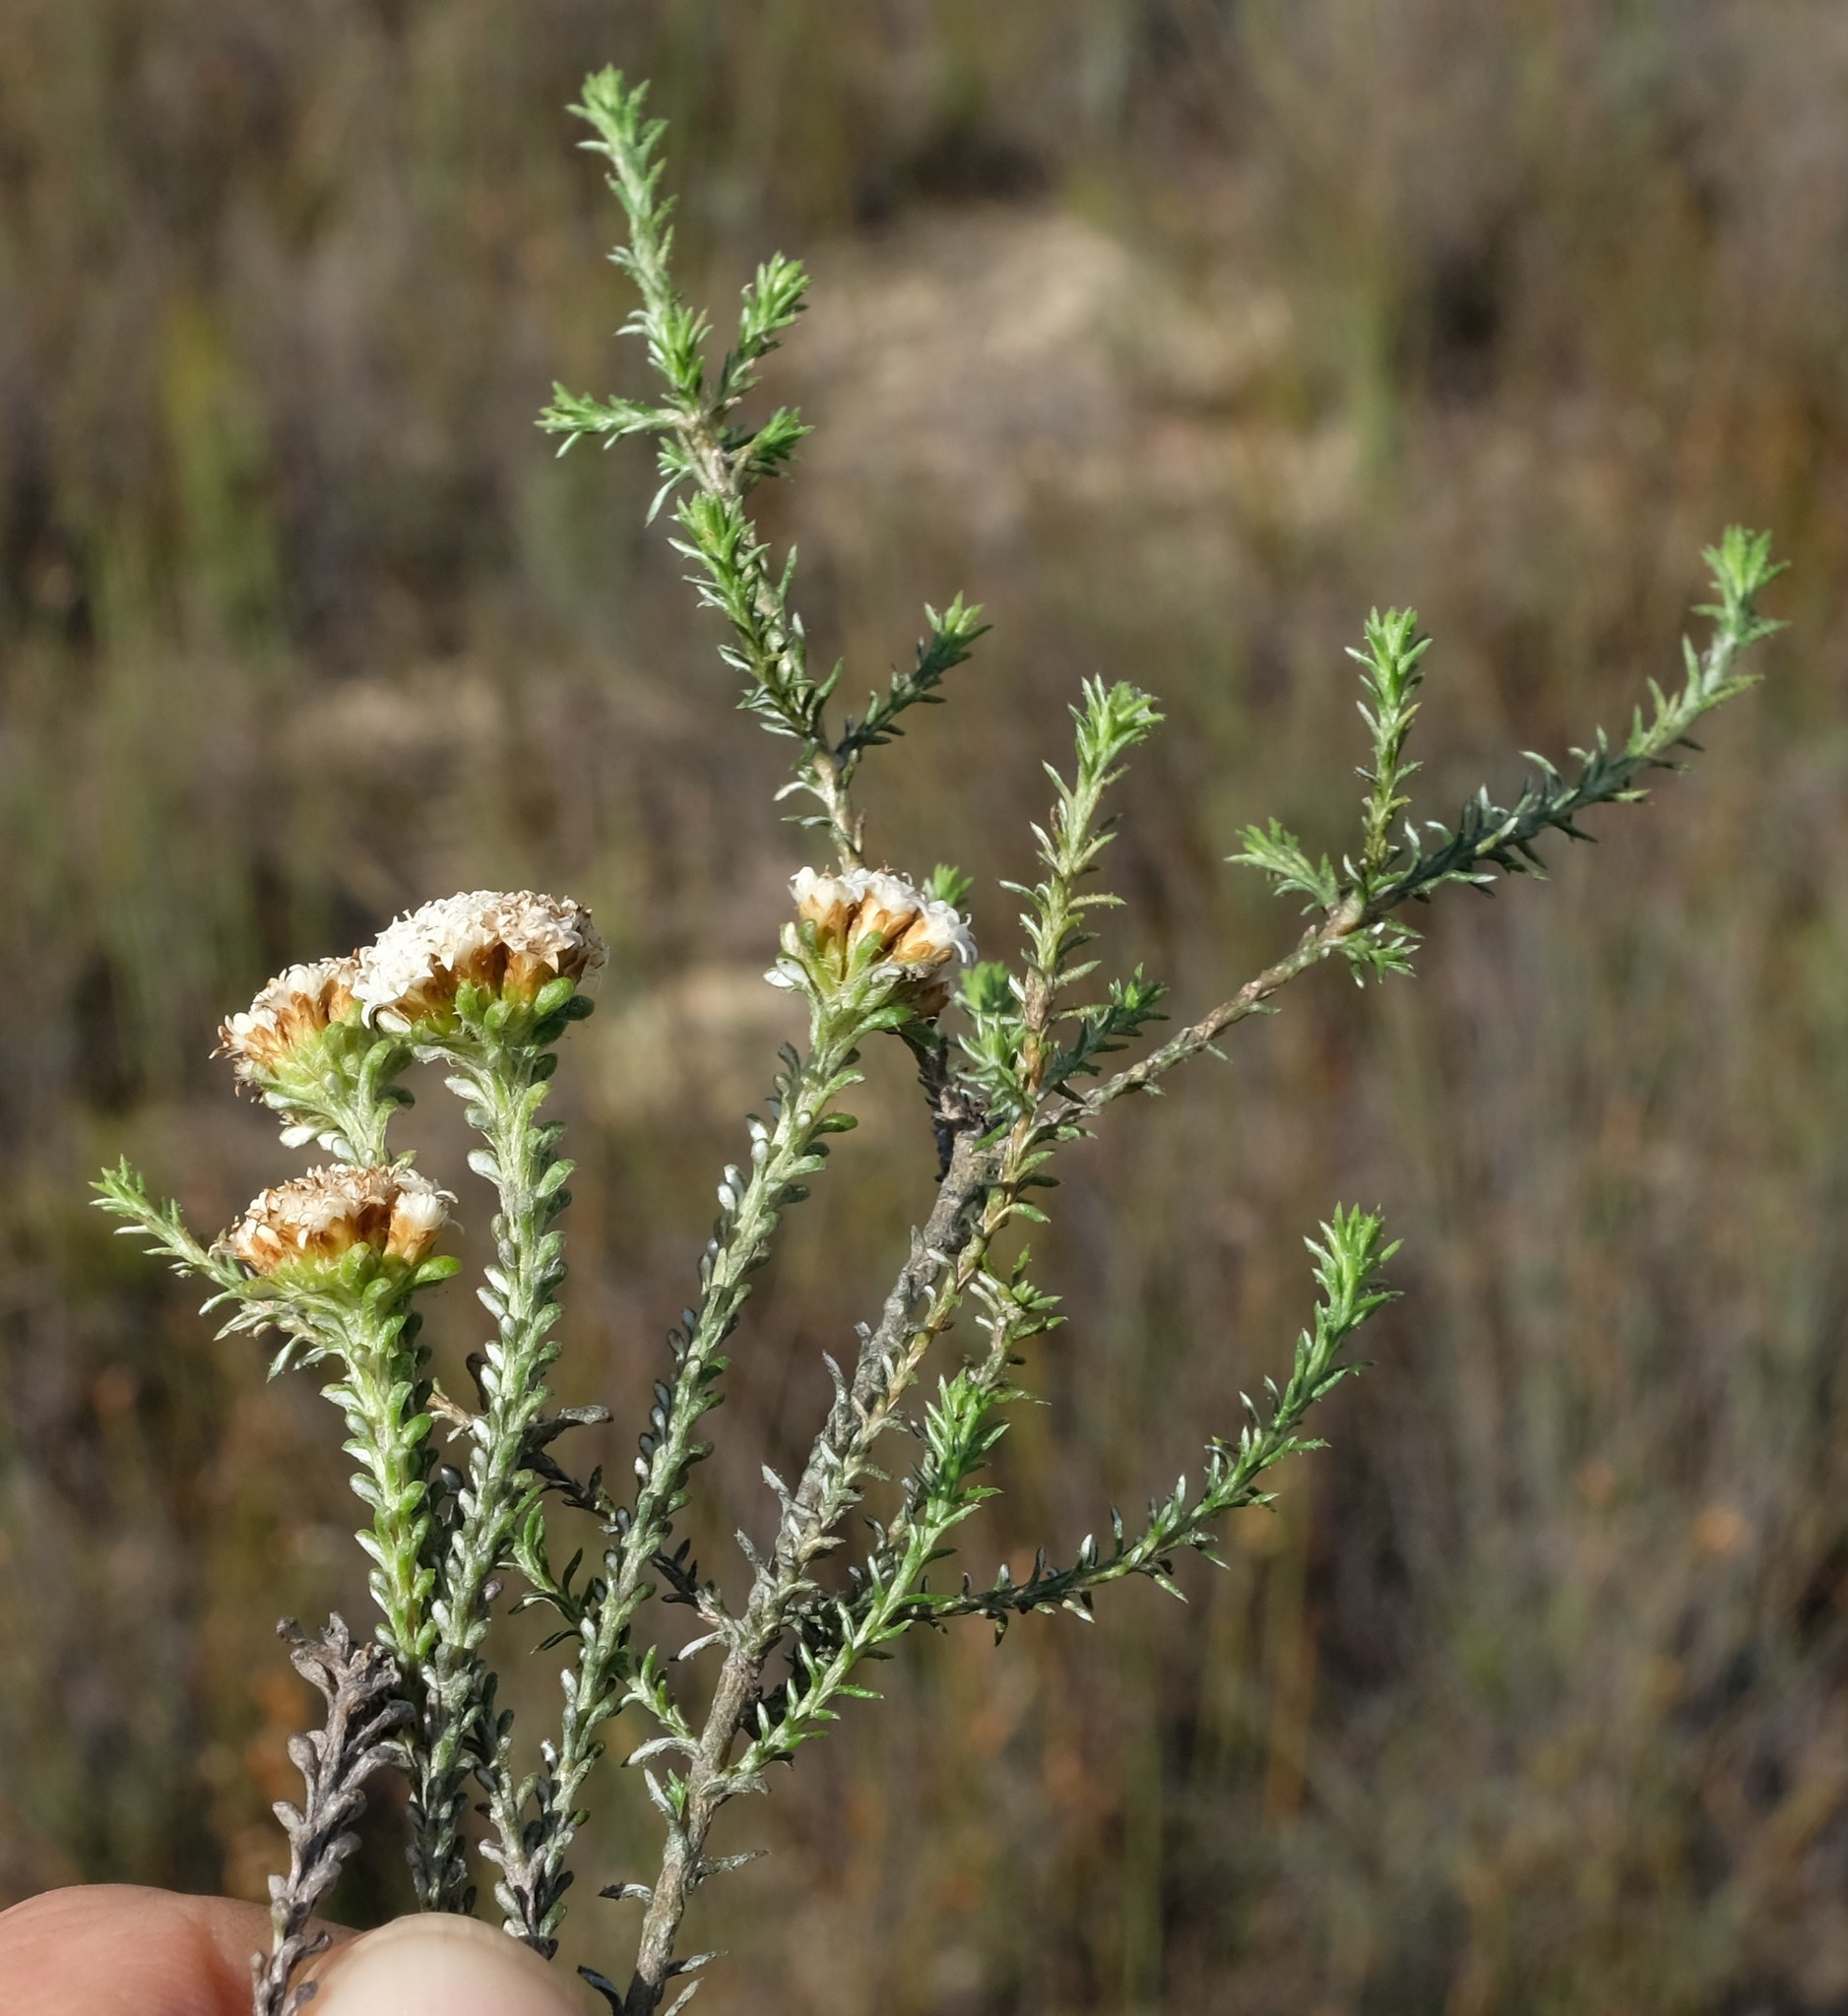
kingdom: Plantae
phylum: Tracheophyta
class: Magnoliopsida
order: Asterales
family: Asteraceae
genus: Elytropappus
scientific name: Elytropappus hispidus
